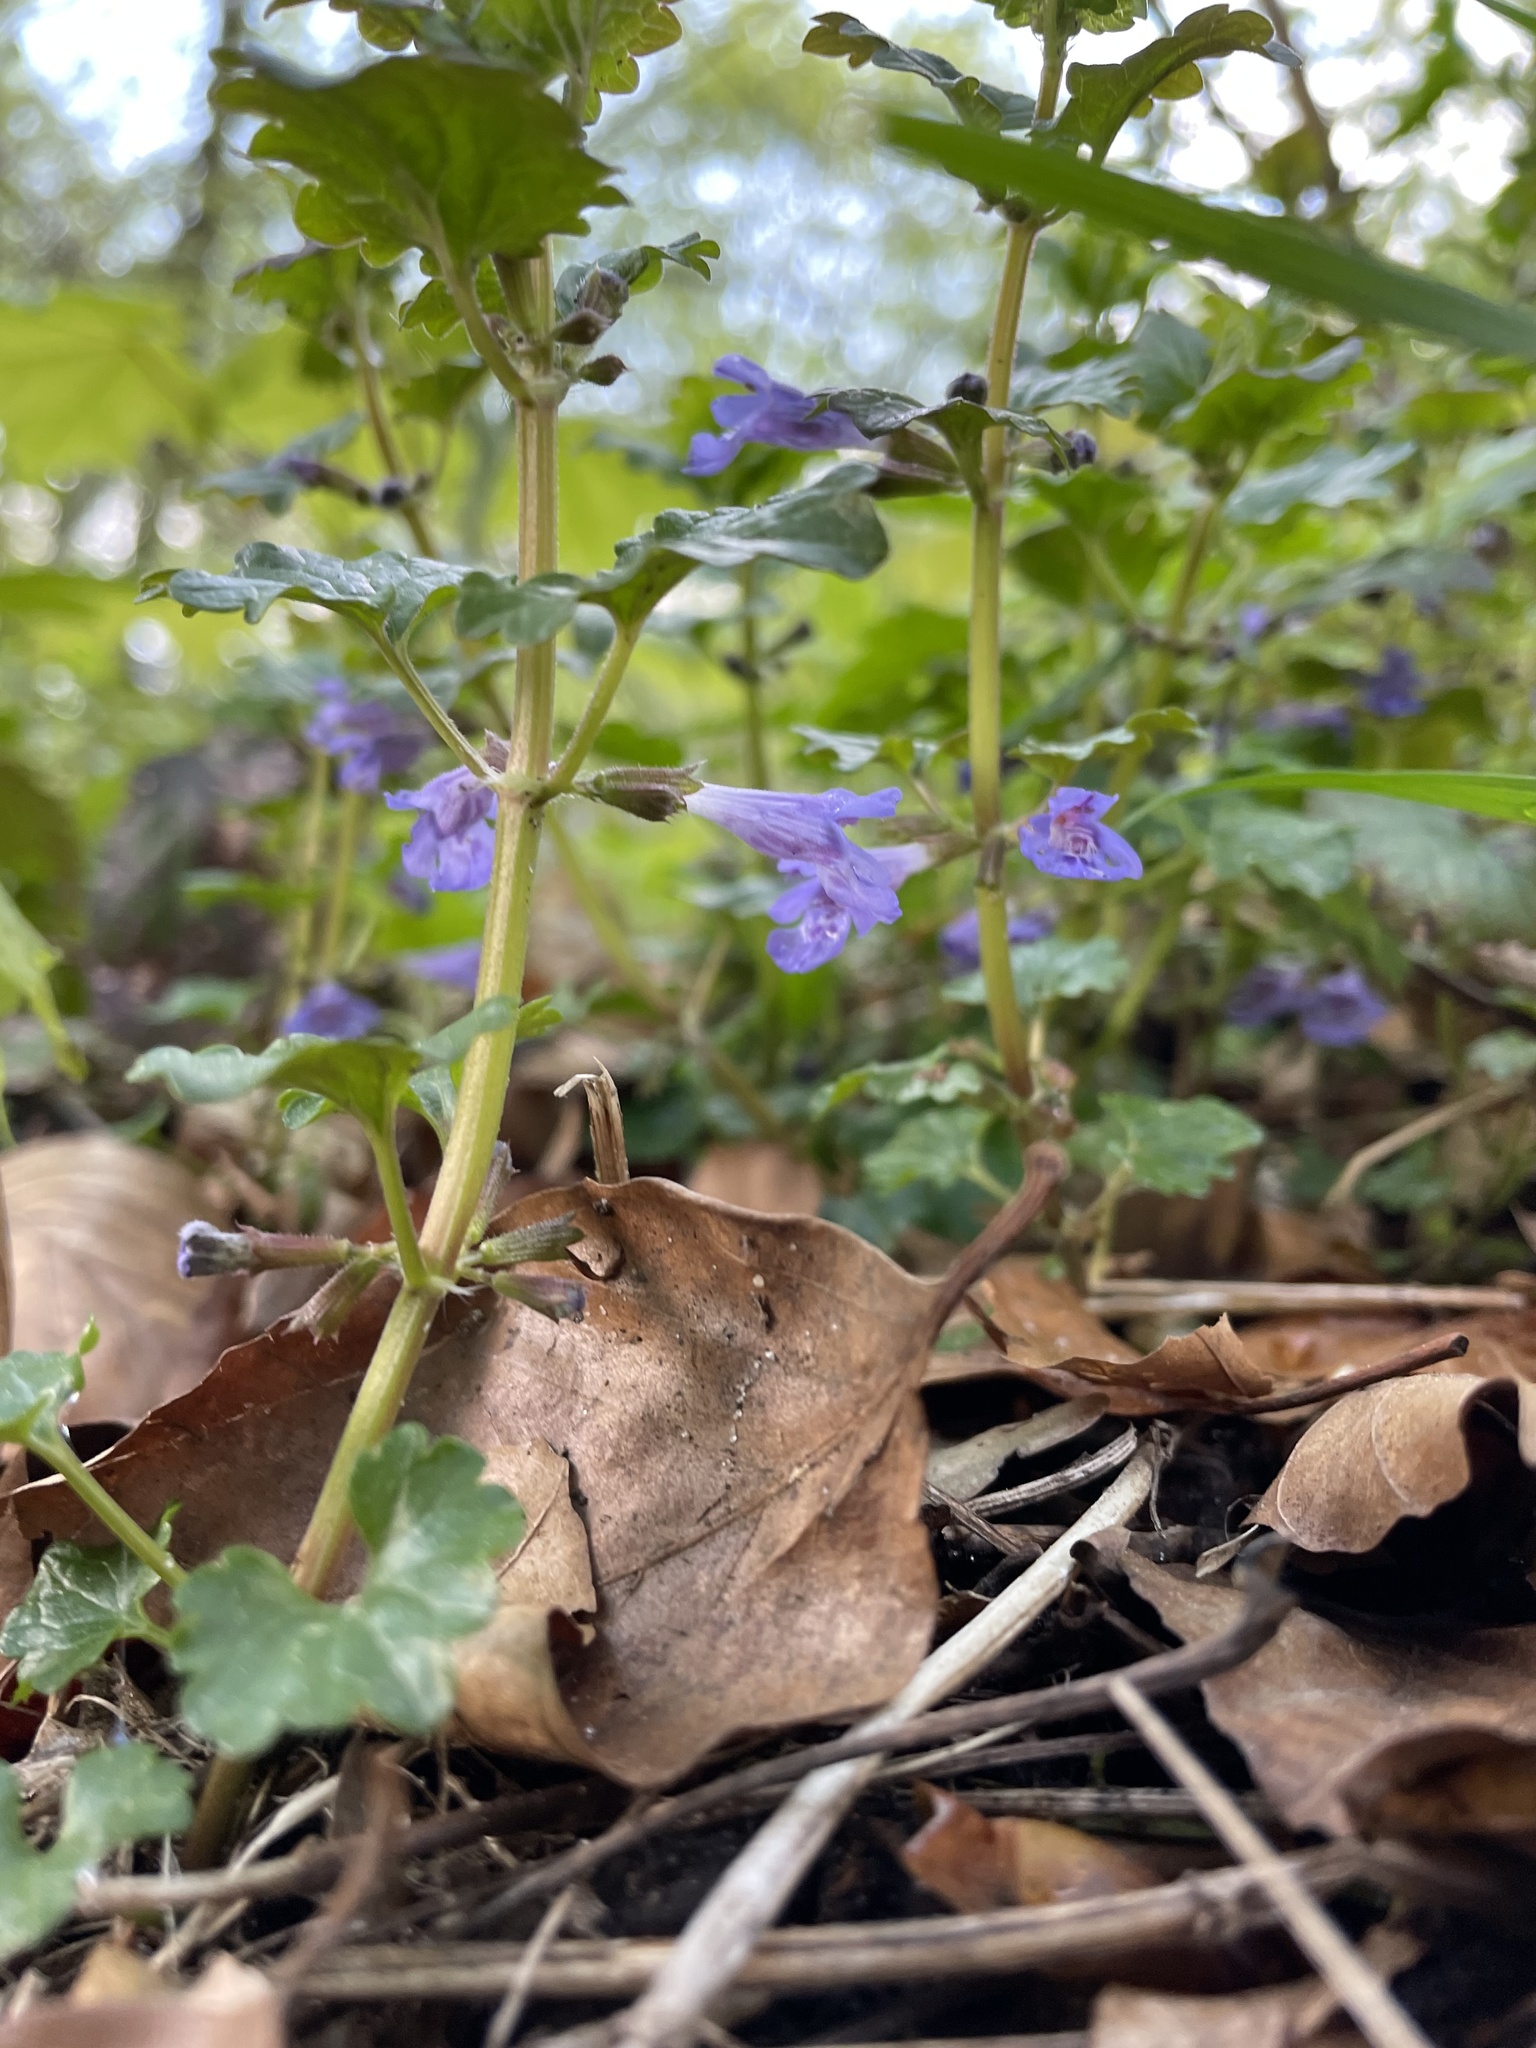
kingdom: Plantae
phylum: Tracheophyta
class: Magnoliopsida
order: Lamiales
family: Lamiaceae
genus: Glechoma
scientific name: Glechoma hederacea
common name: Ground ivy
